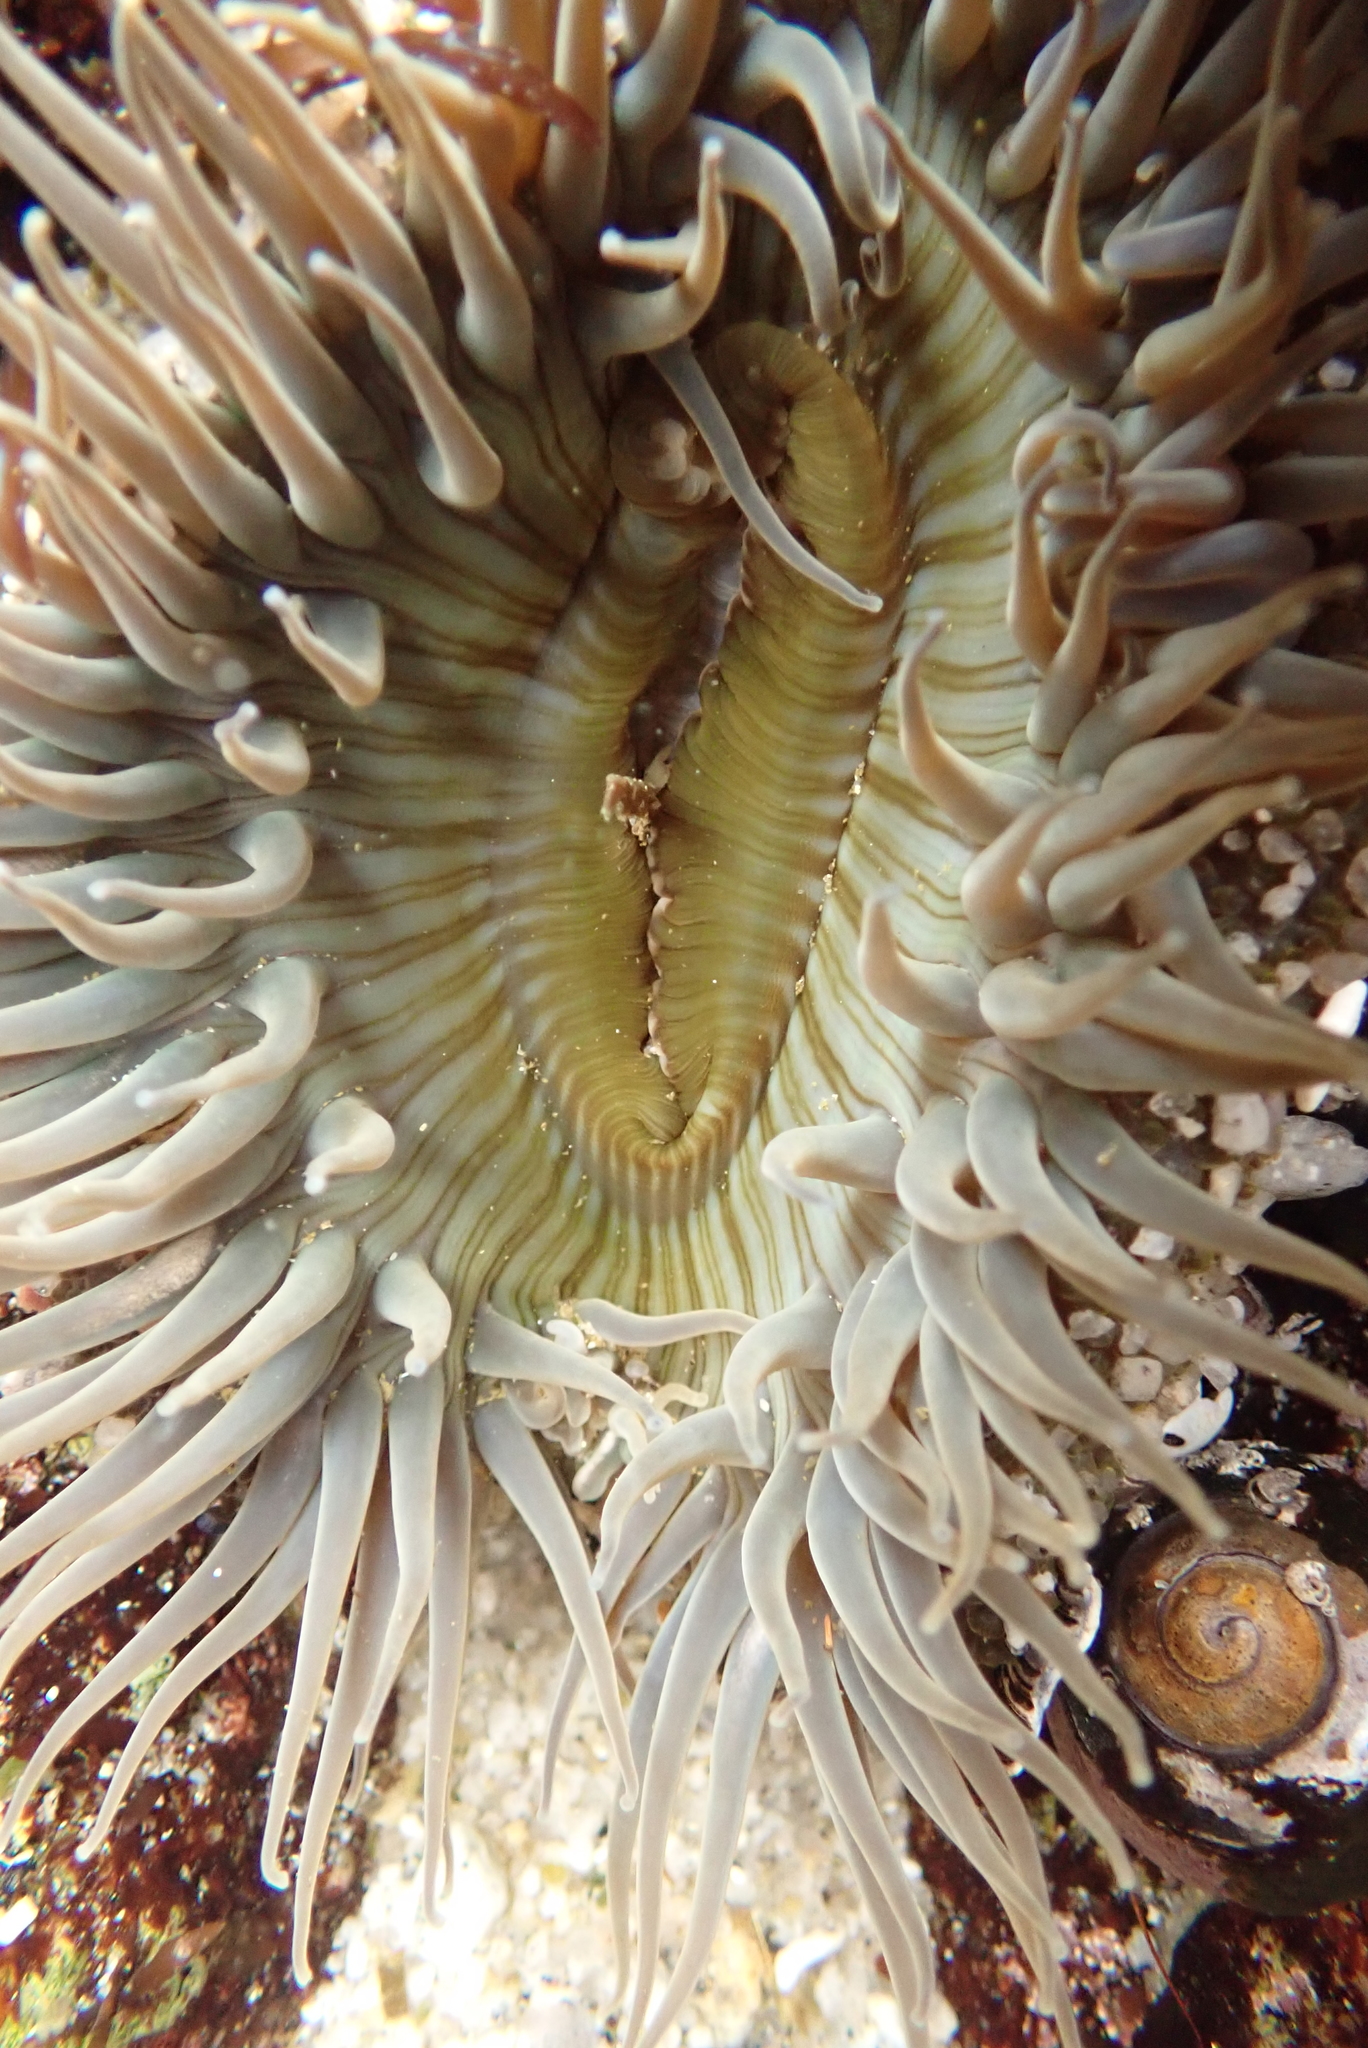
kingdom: Animalia
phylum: Cnidaria
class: Anthozoa
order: Actiniaria
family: Actiniidae
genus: Anthopleura
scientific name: Anthopleura sola
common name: Sun anemone
